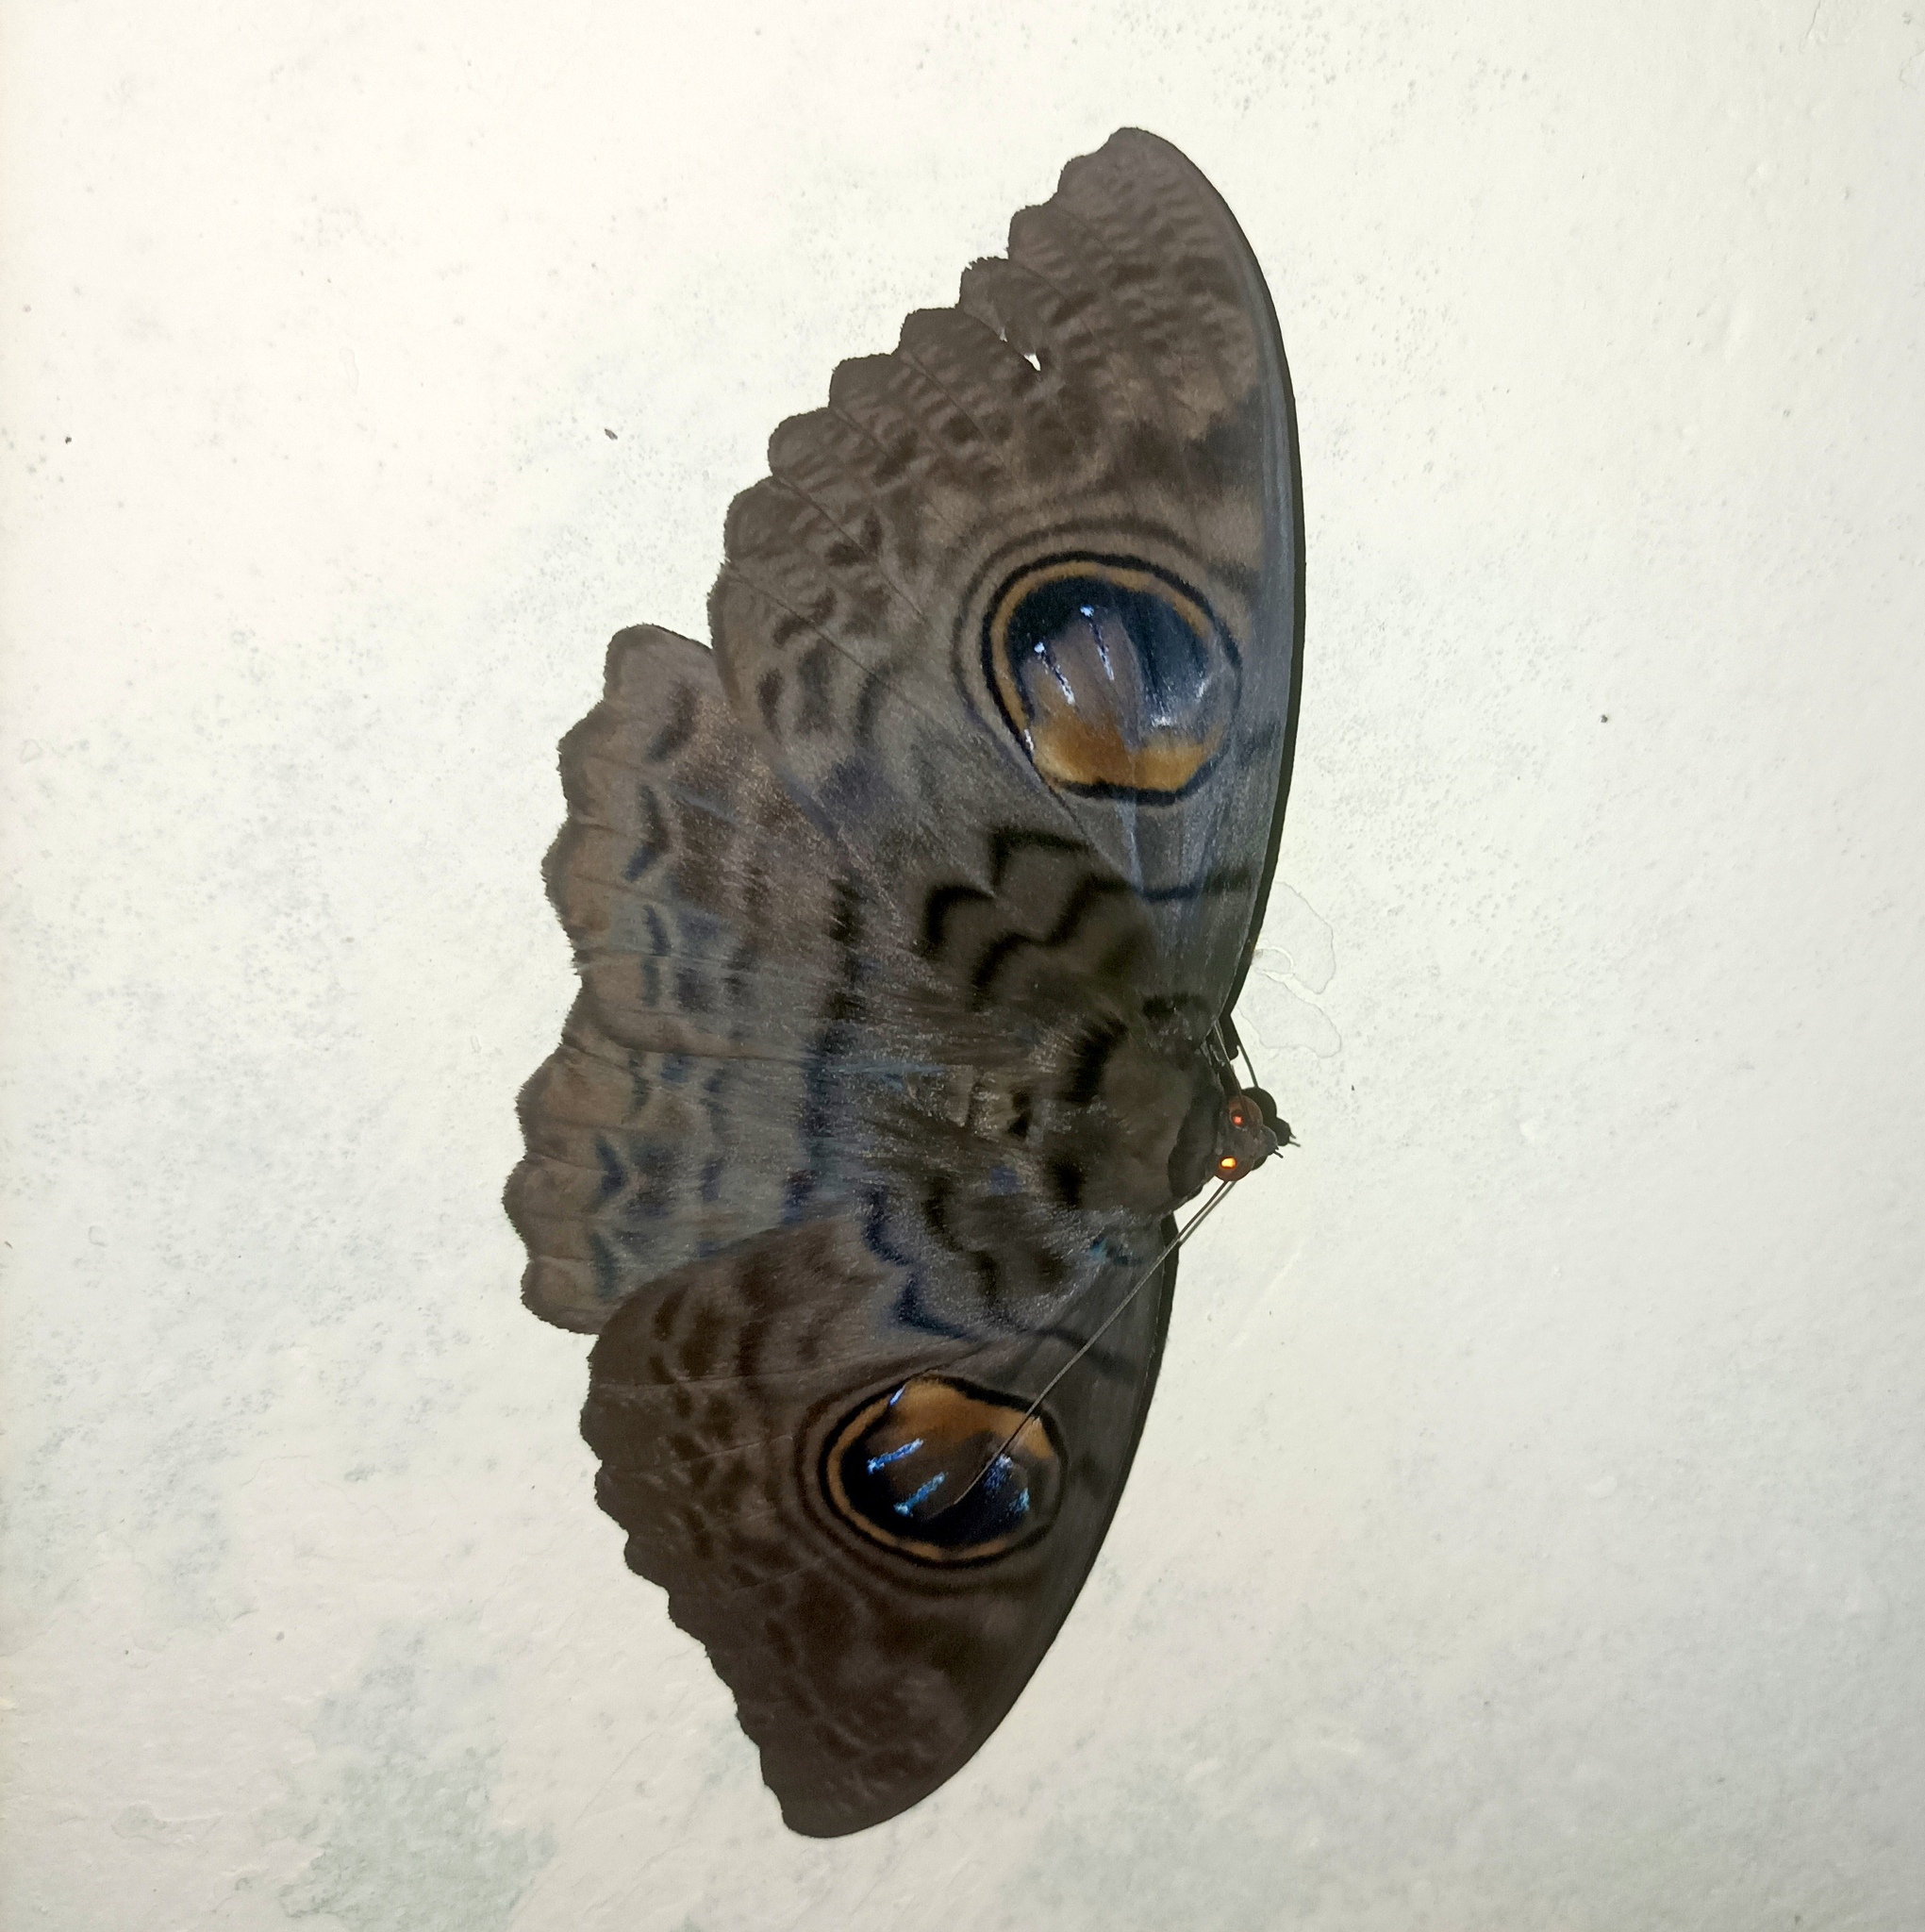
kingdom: Animalia
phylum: Arthropoda
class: Insecta
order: Lepidoptera
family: Erebidae
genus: Erebus
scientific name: Erebus macrops
